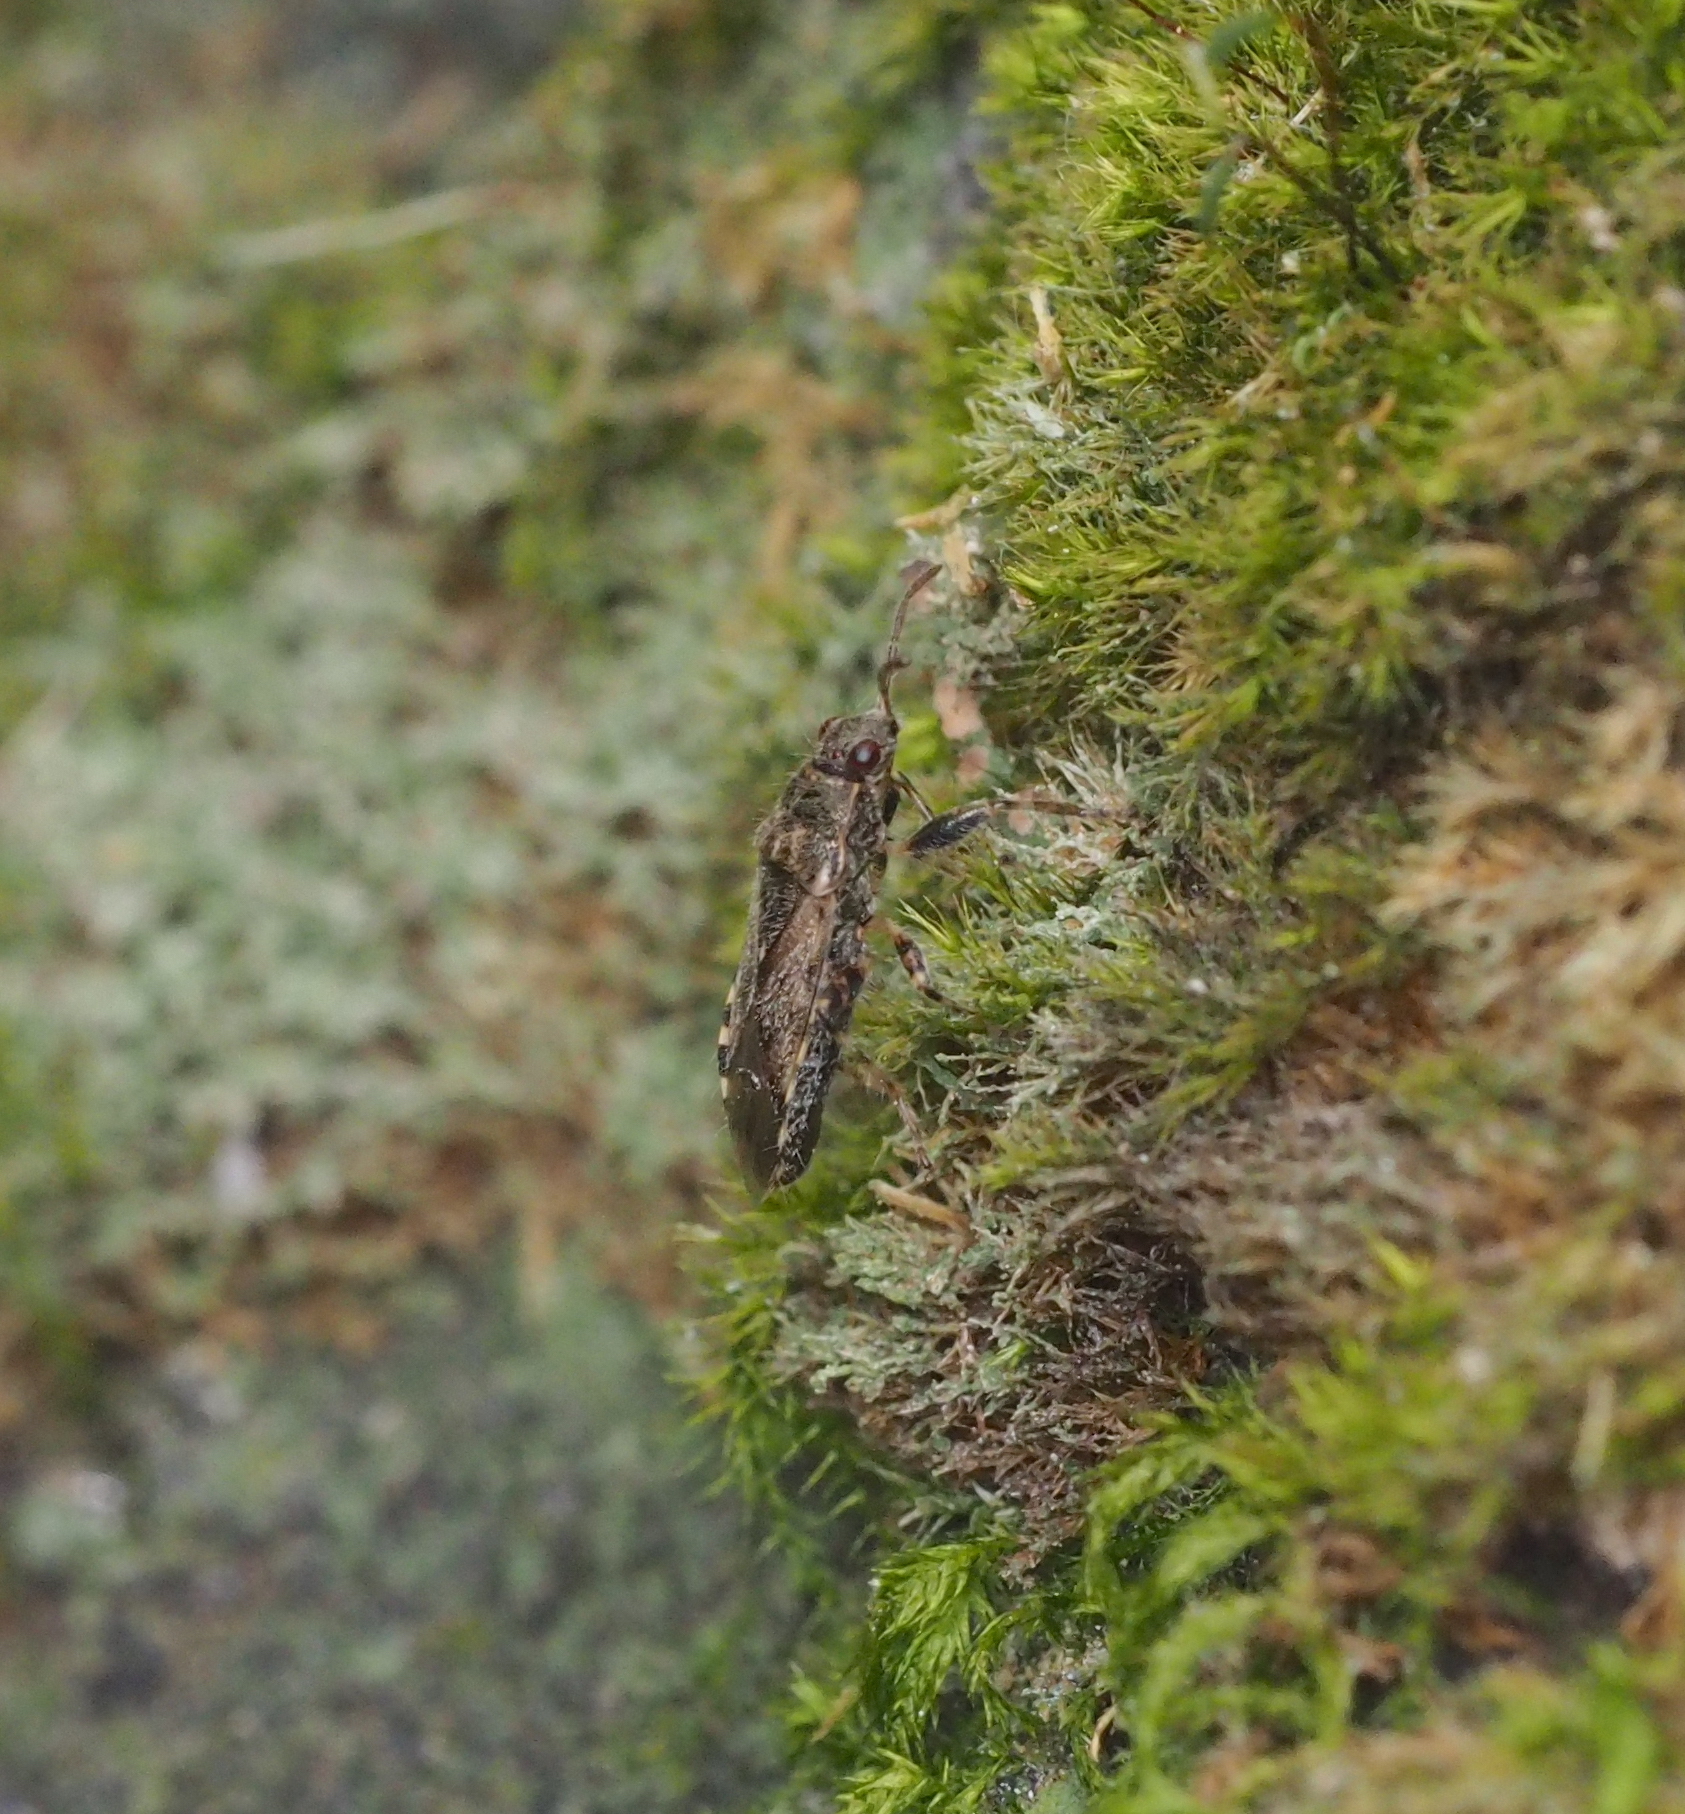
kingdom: Animalia
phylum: Arthropoda
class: Insecta
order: Hemiptera
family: Heterogastridae
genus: Heterogaster
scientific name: Heterogaster urticae
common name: Seed bug
